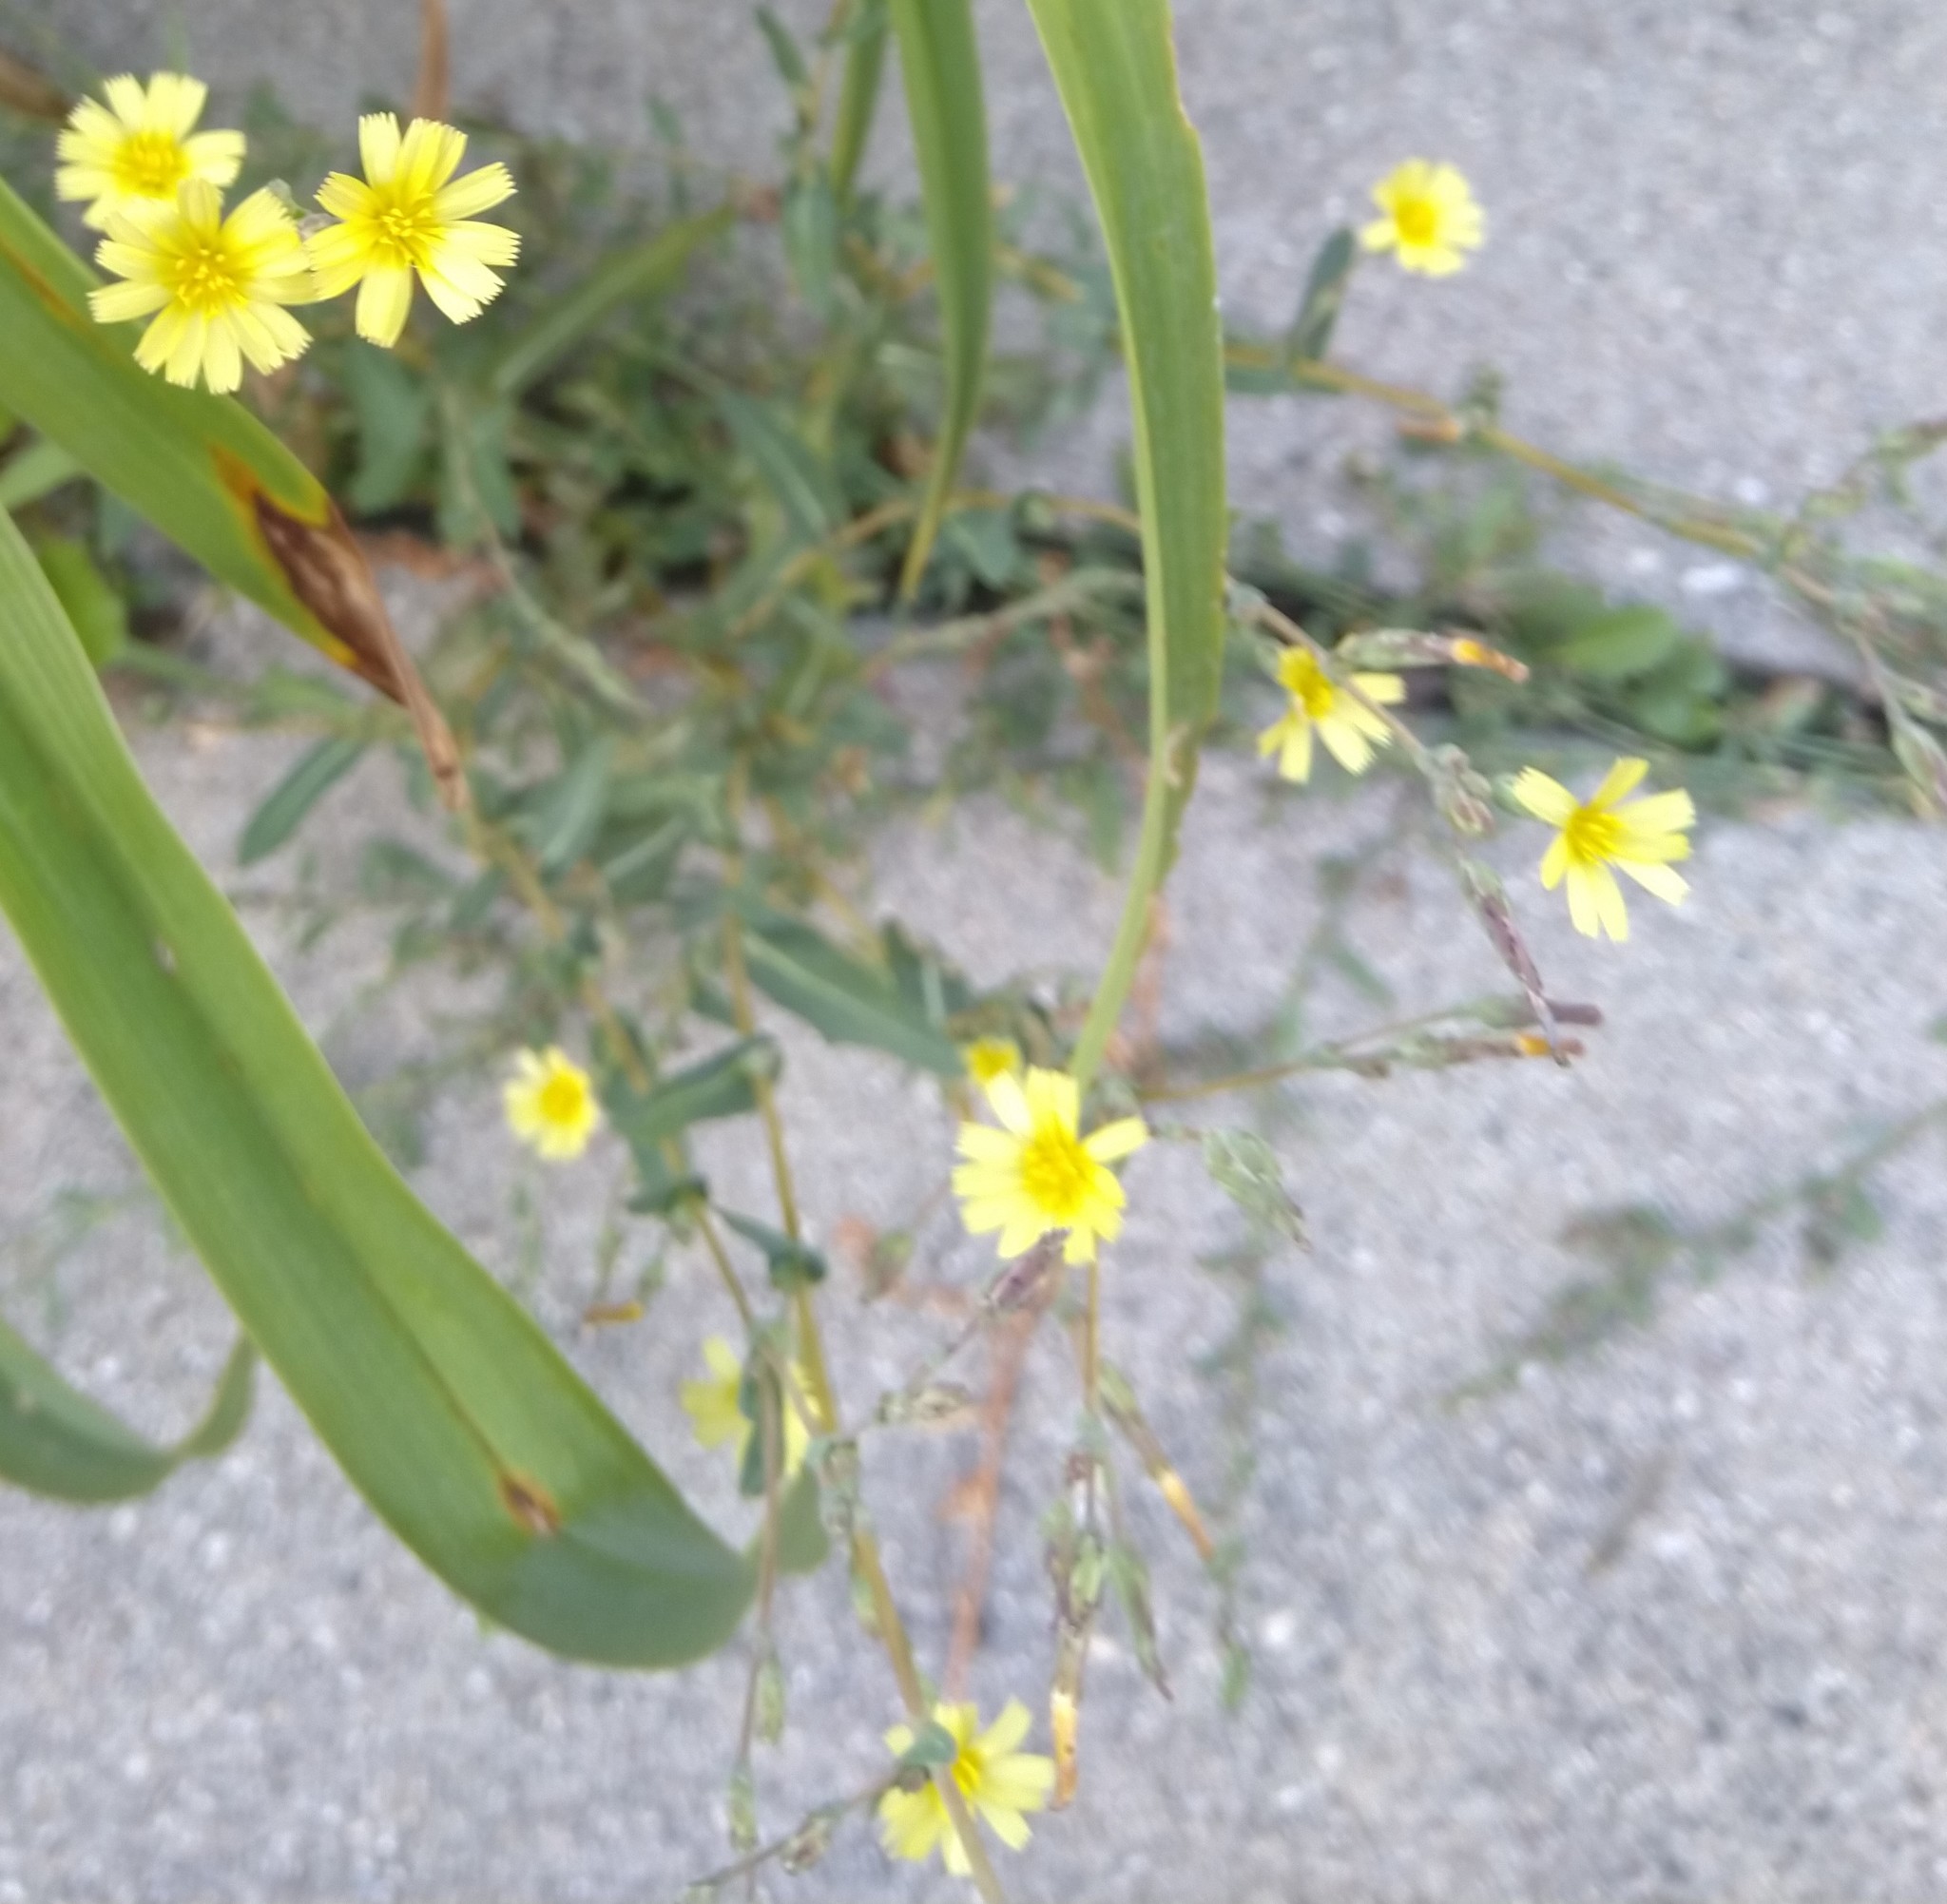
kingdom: Plantae
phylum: Tracheophyta
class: Magnoliopsida
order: Asterales
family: Asteraceae
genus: Lactuca
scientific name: Lactuca serriola
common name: Prickly lettuce
